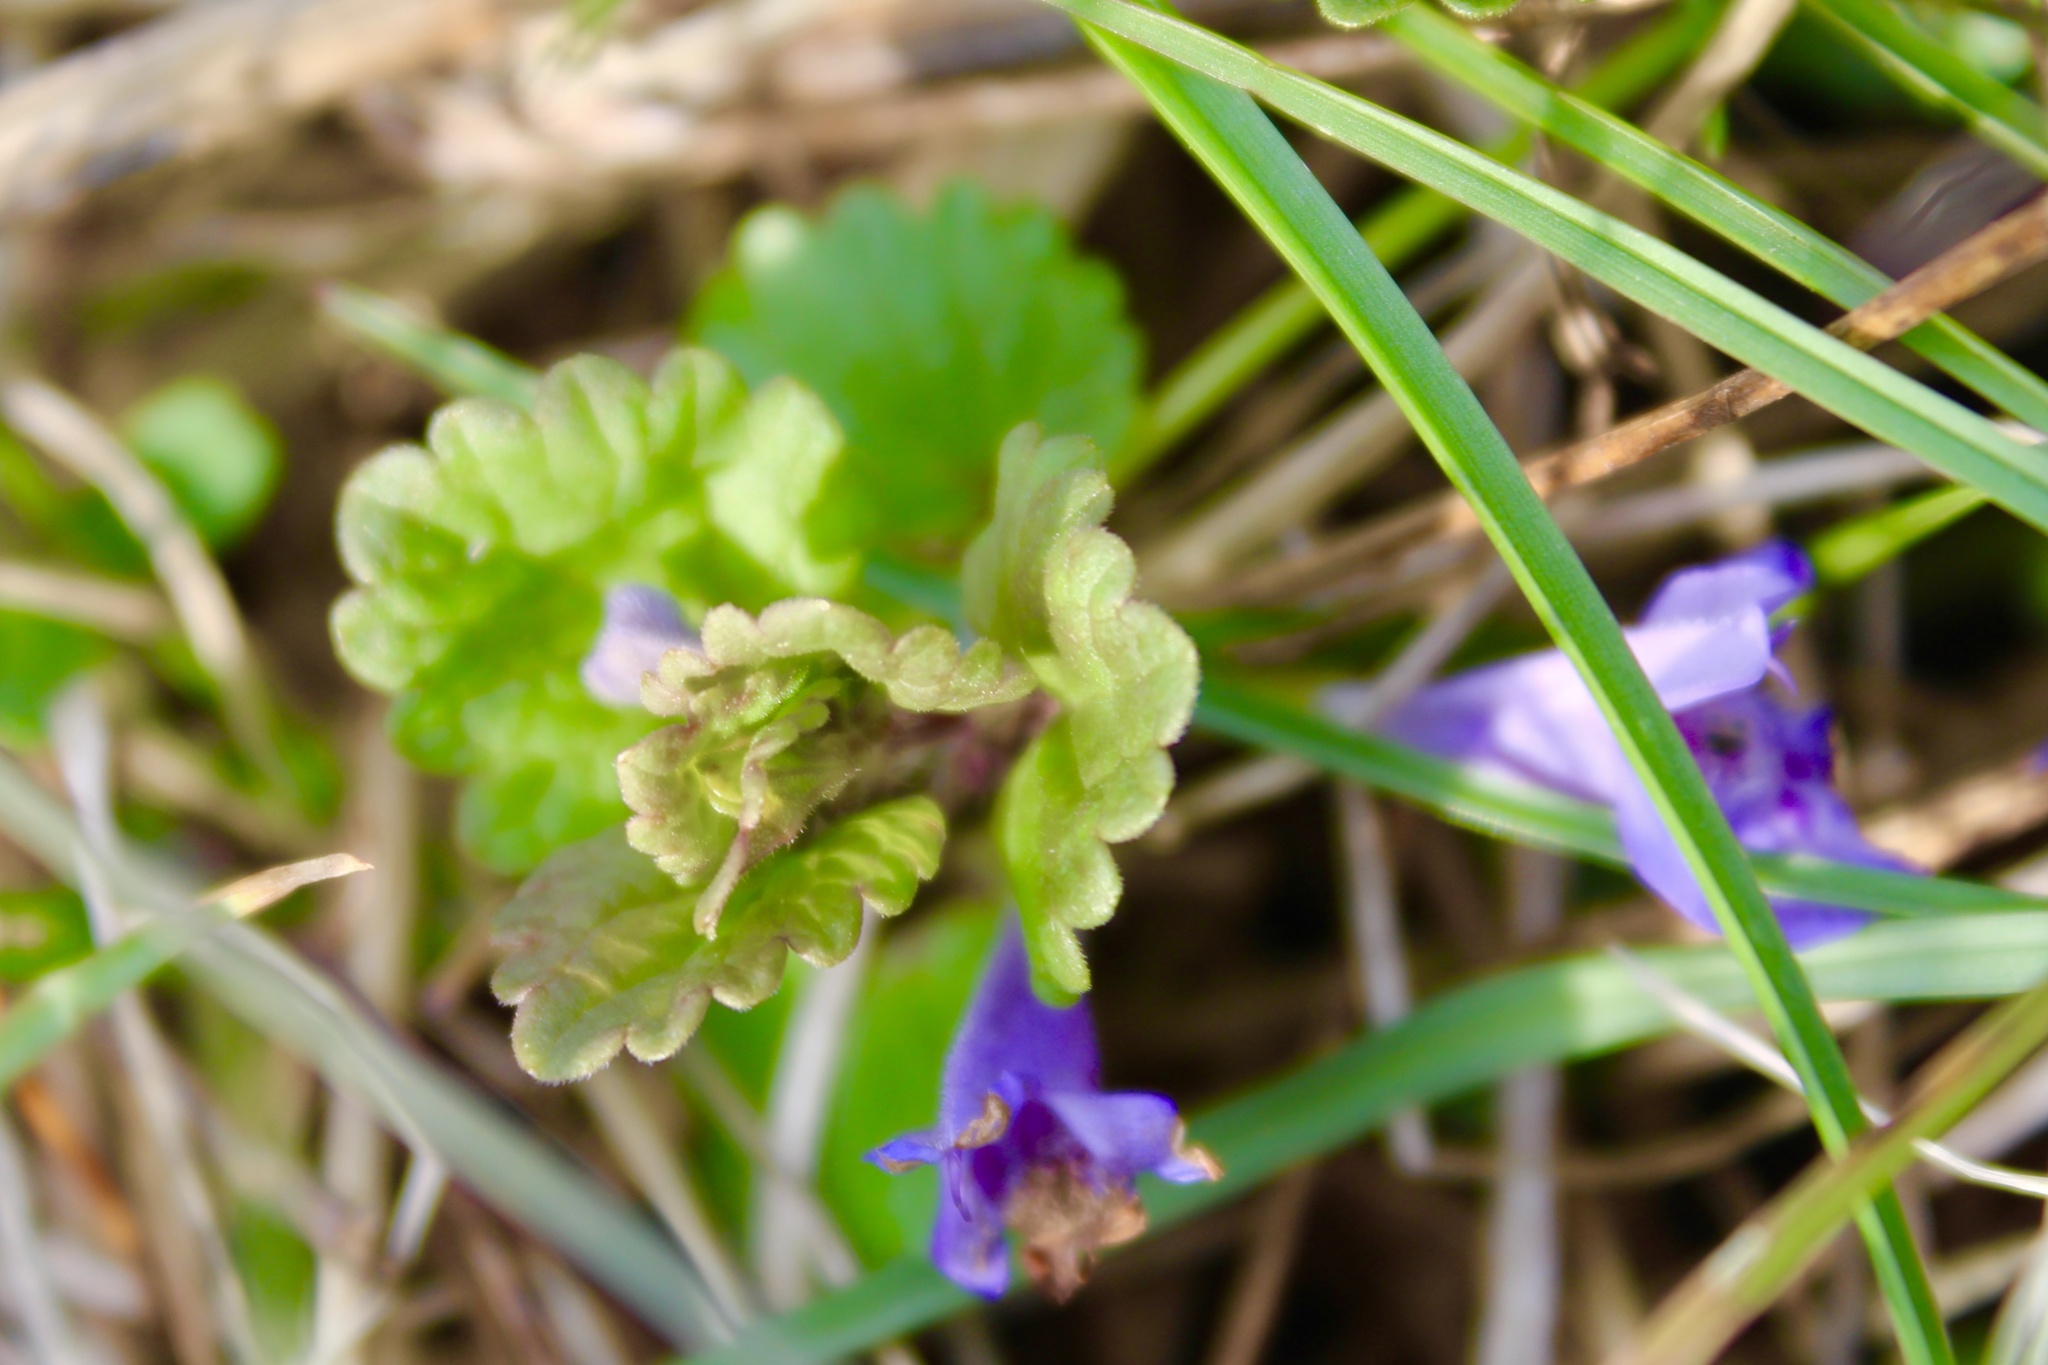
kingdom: Plantae
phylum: Tracheophyta
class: Magnoliopsida
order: Lamiales
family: Lamiaceae
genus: Glechoma
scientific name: Glechoma hederacea
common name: Ground ivy
